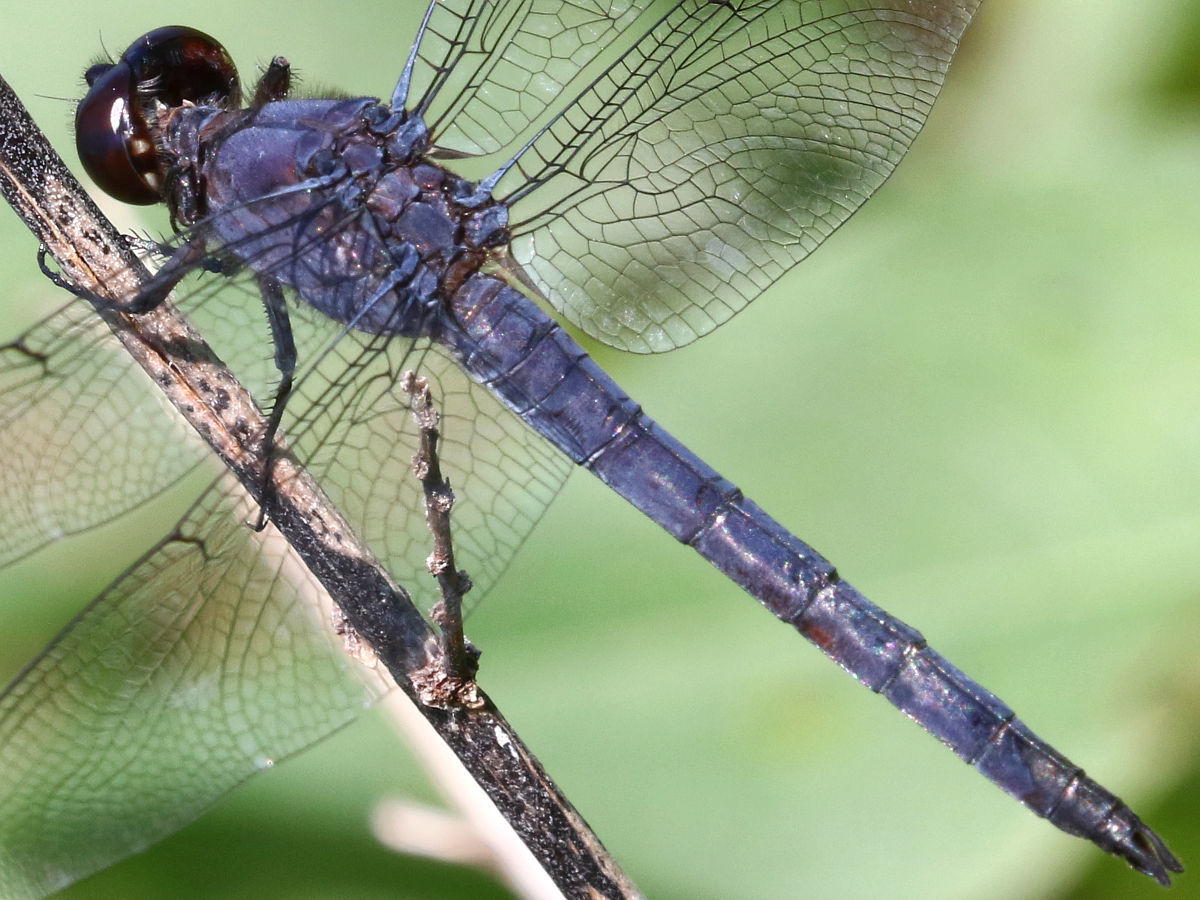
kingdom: Animalia
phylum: Arthropoda
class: Insecta
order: Odonata
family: Libellulidae
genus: Libellula
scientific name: Libellula incesta
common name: Slaty skimmer
